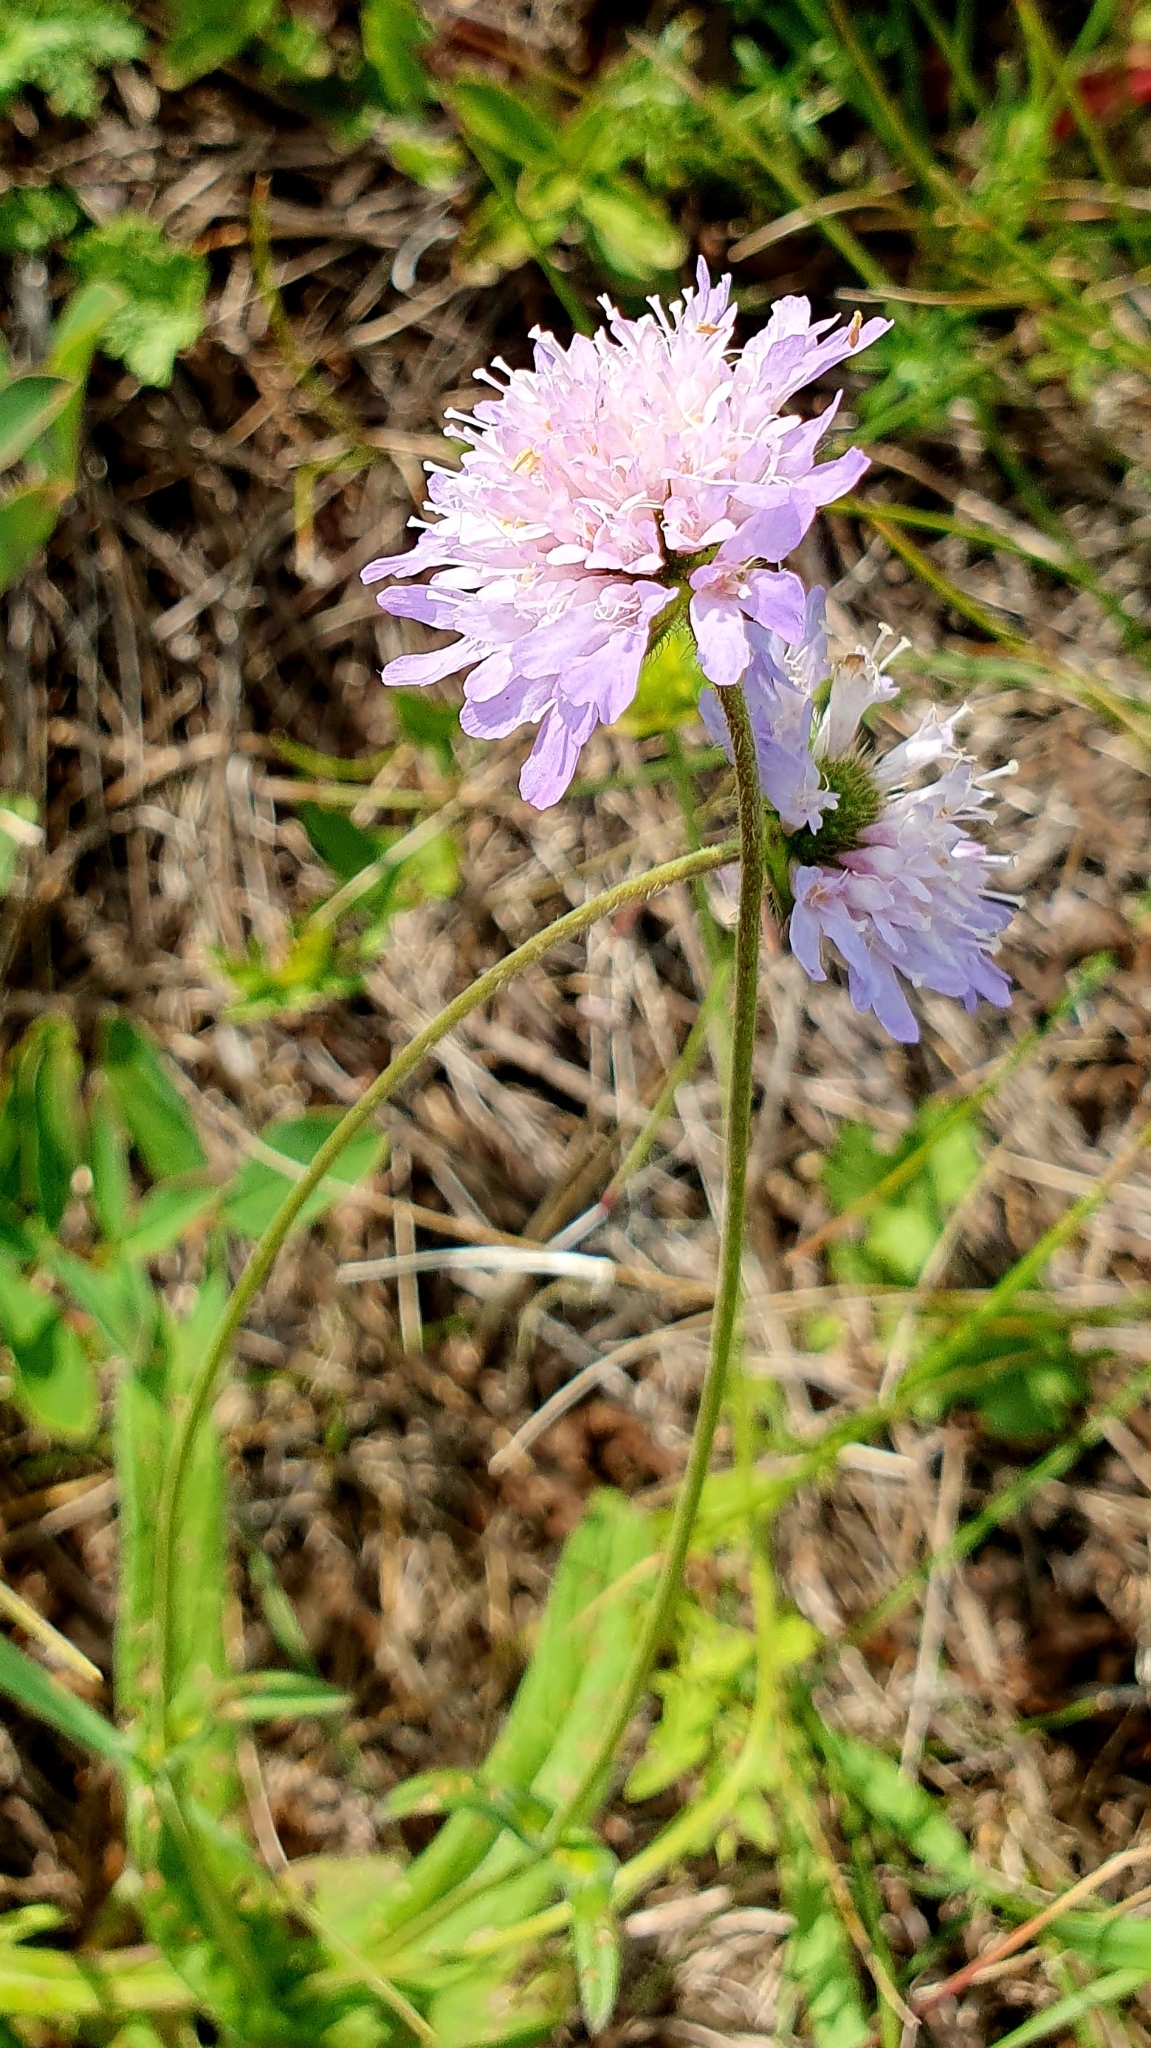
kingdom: Plantae
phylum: Tracheophyta
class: Magnoliopsida
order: Dipsacales
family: Caprifoliaceae
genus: Knautia
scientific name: Knautia arvensis
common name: Field scabiosa
